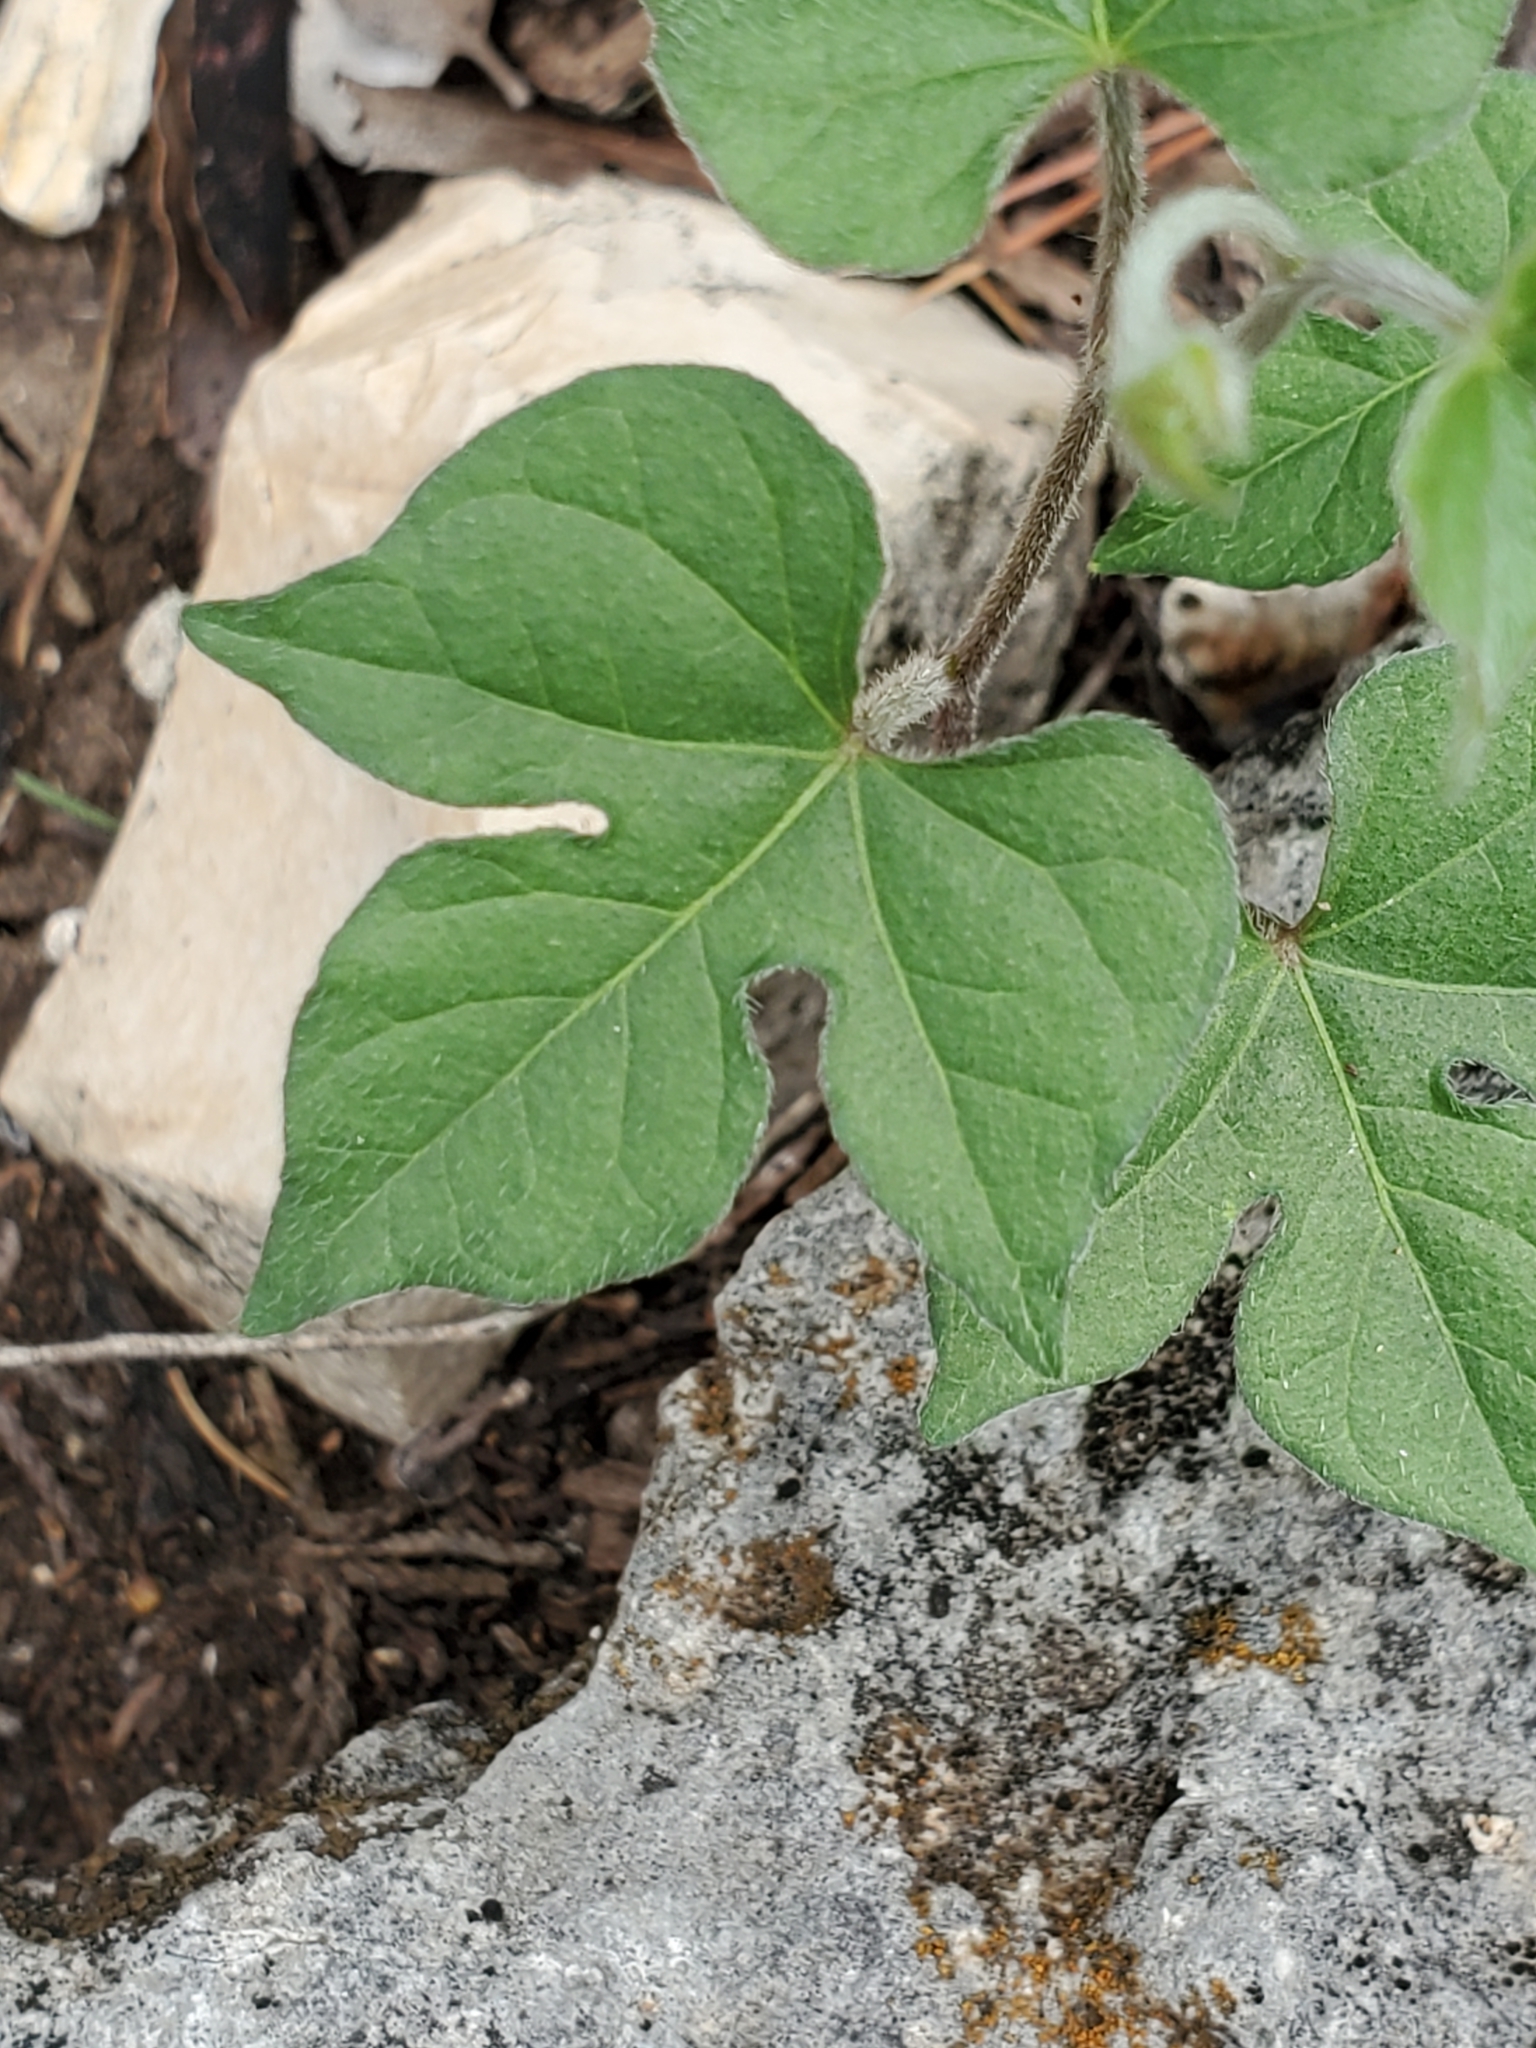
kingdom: Plantae
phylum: Tracheophyta
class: Magnoliopsida
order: Solanales
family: Convolvulaceae
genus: Ipomoea
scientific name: Ipomoea lindheimeri
